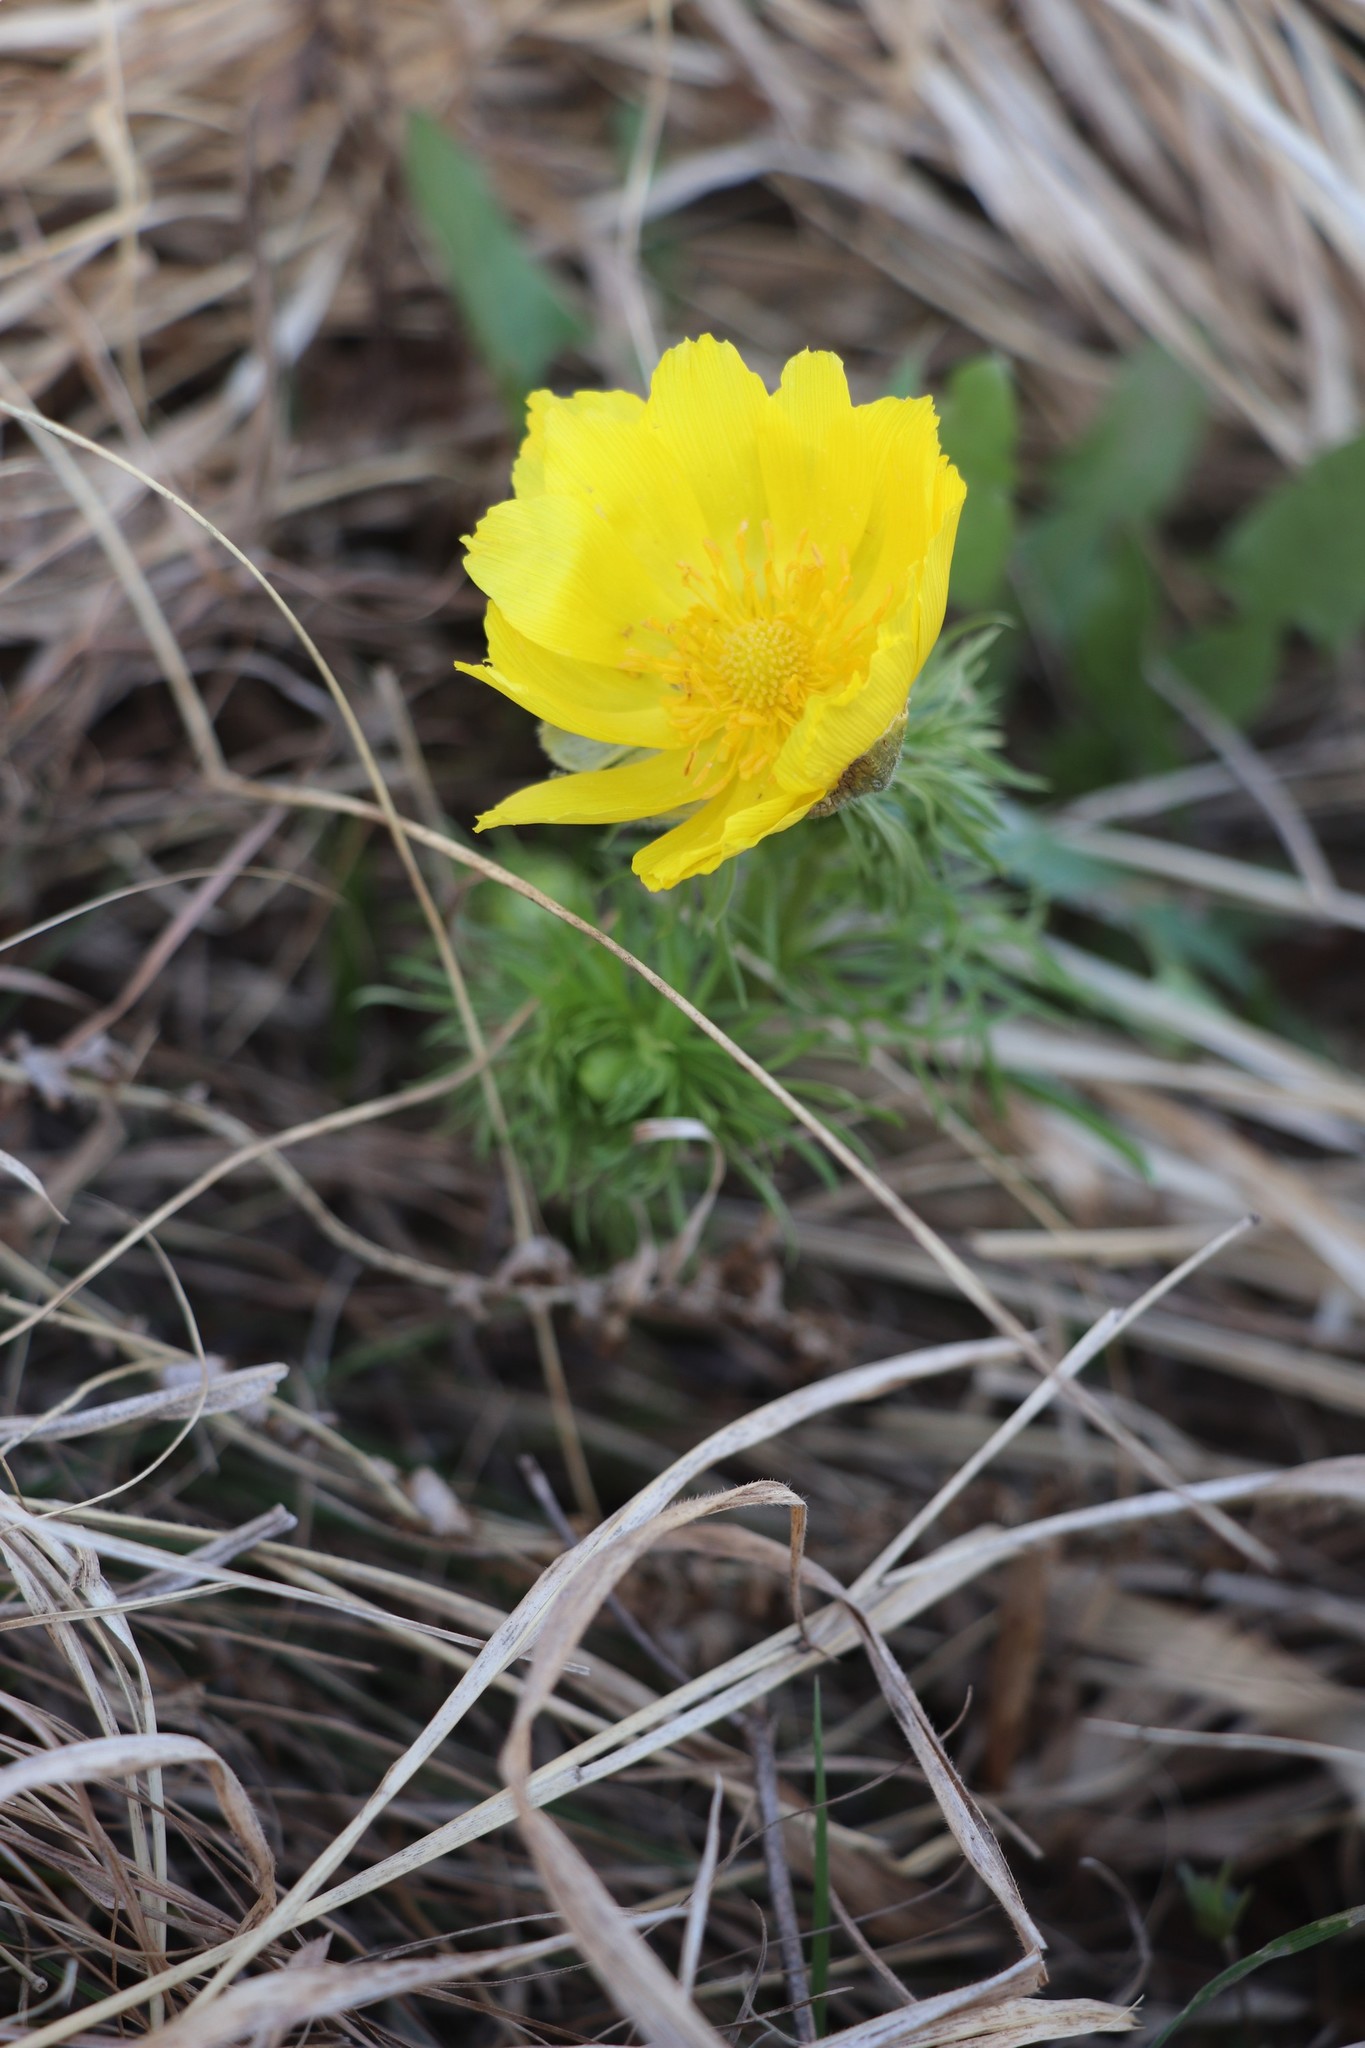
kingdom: Plantae
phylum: Tracheophyta
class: Magnoliopsida
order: Ranunculales
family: Ranunculaceae
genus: Adonis
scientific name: Adonis vernalis
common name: Yellow pheasants-eye
